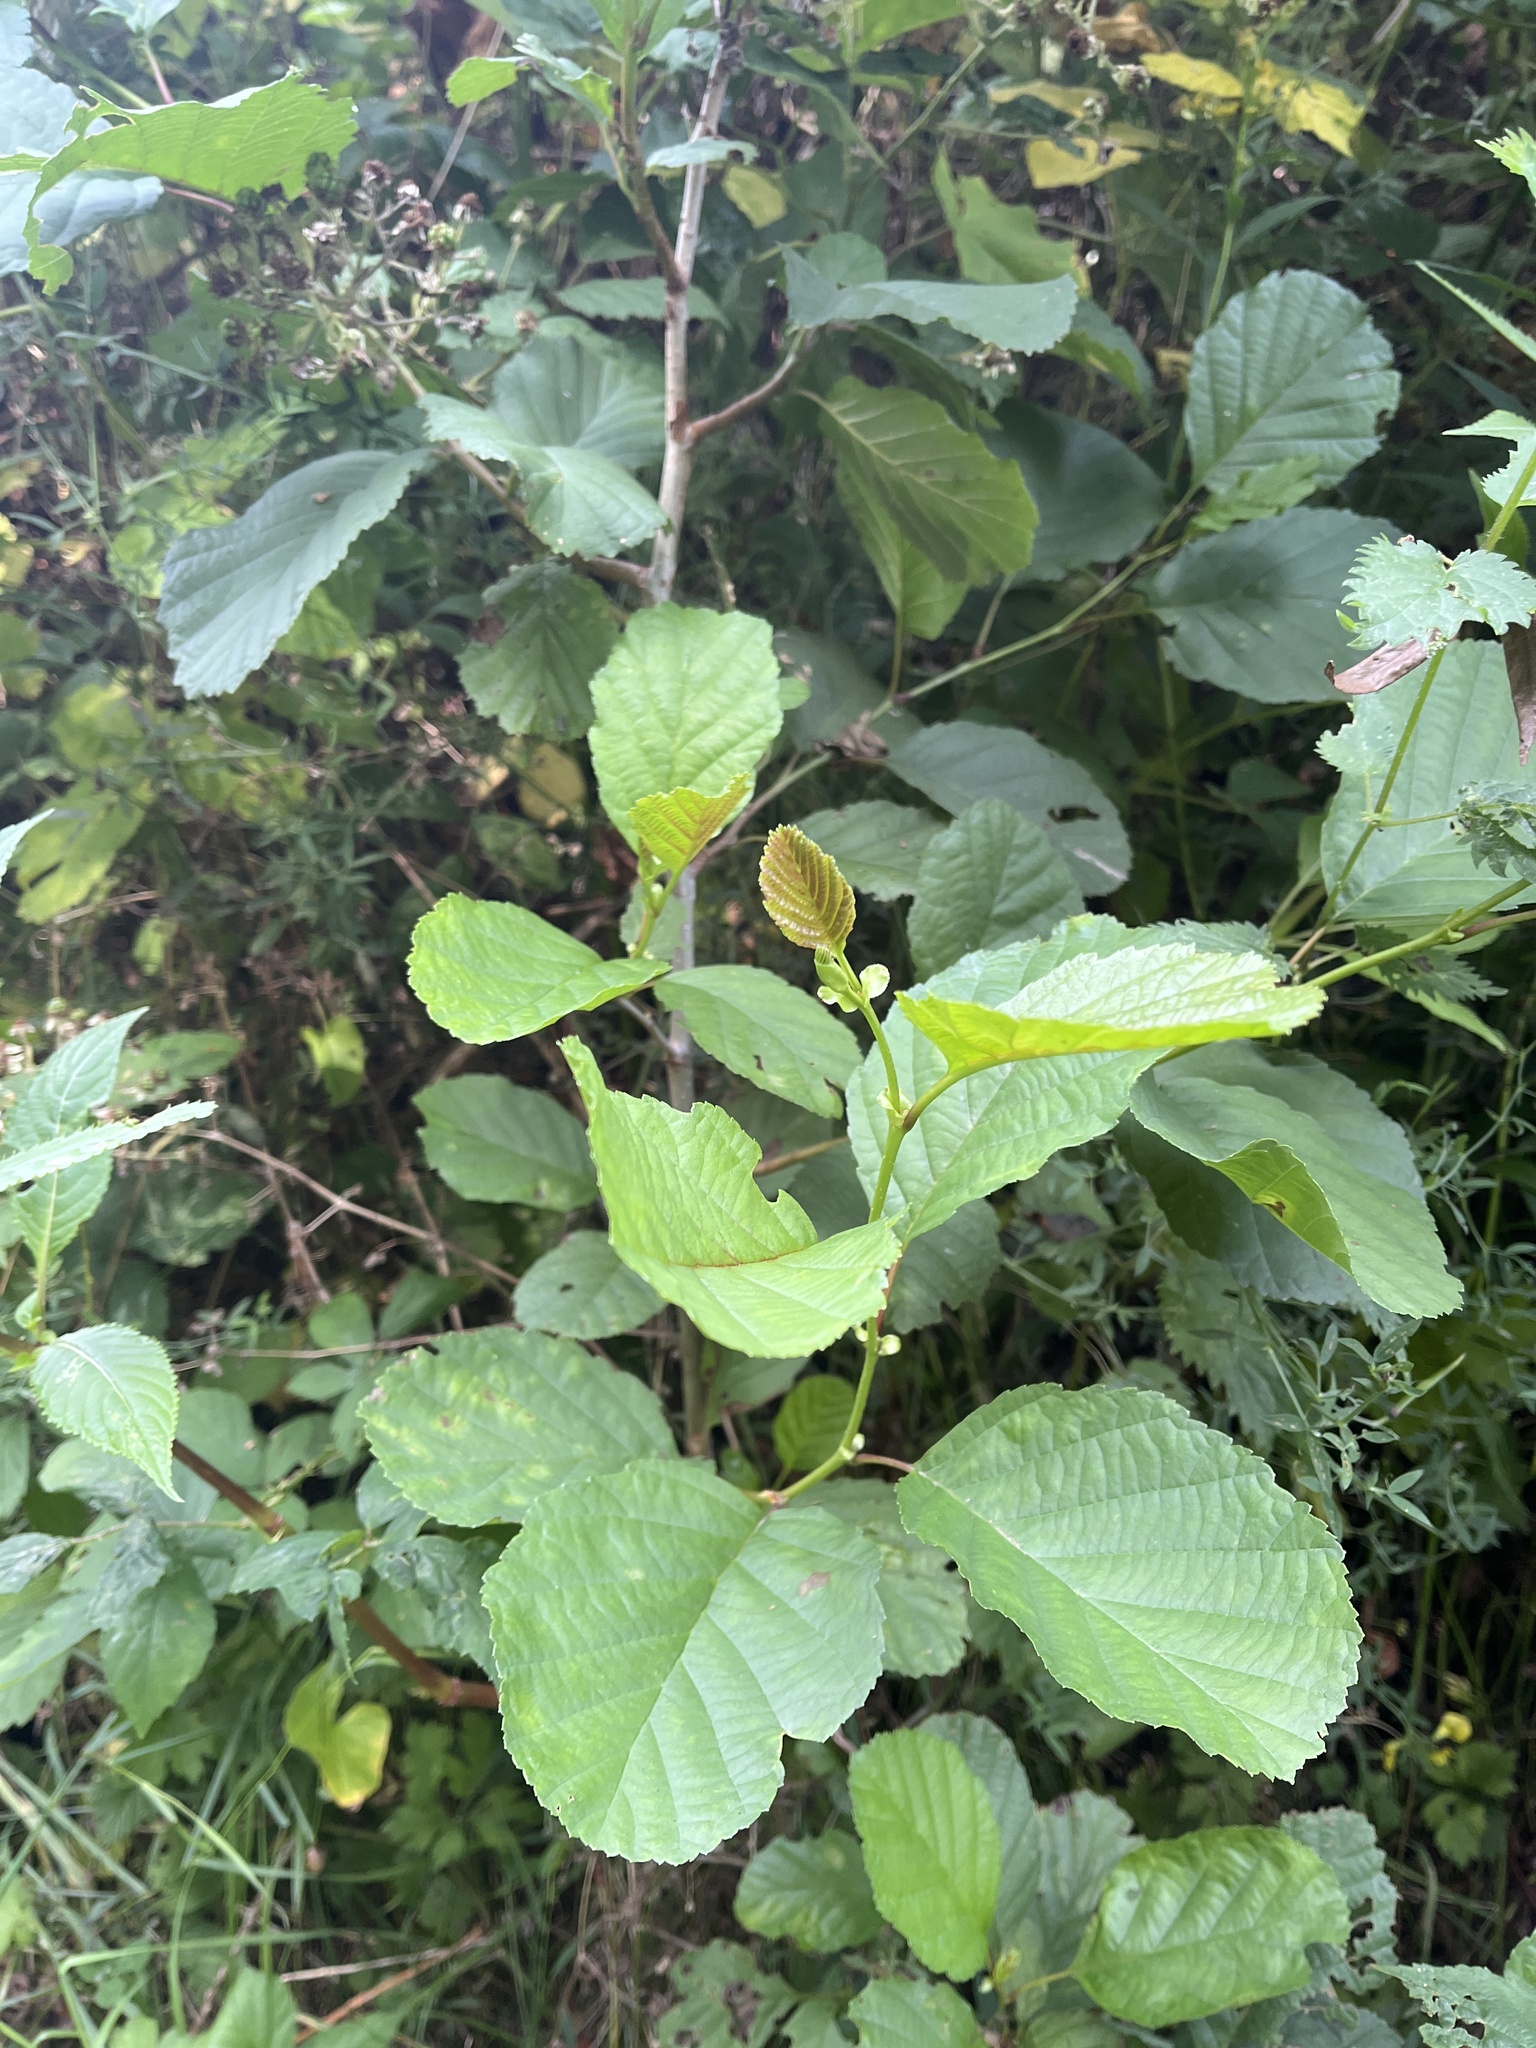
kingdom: Plantae
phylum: Tracheophyta
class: Magnoliopsida
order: Fagales
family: Betulaceae
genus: Alnus
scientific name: Alnus glutinosa
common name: Black alder
